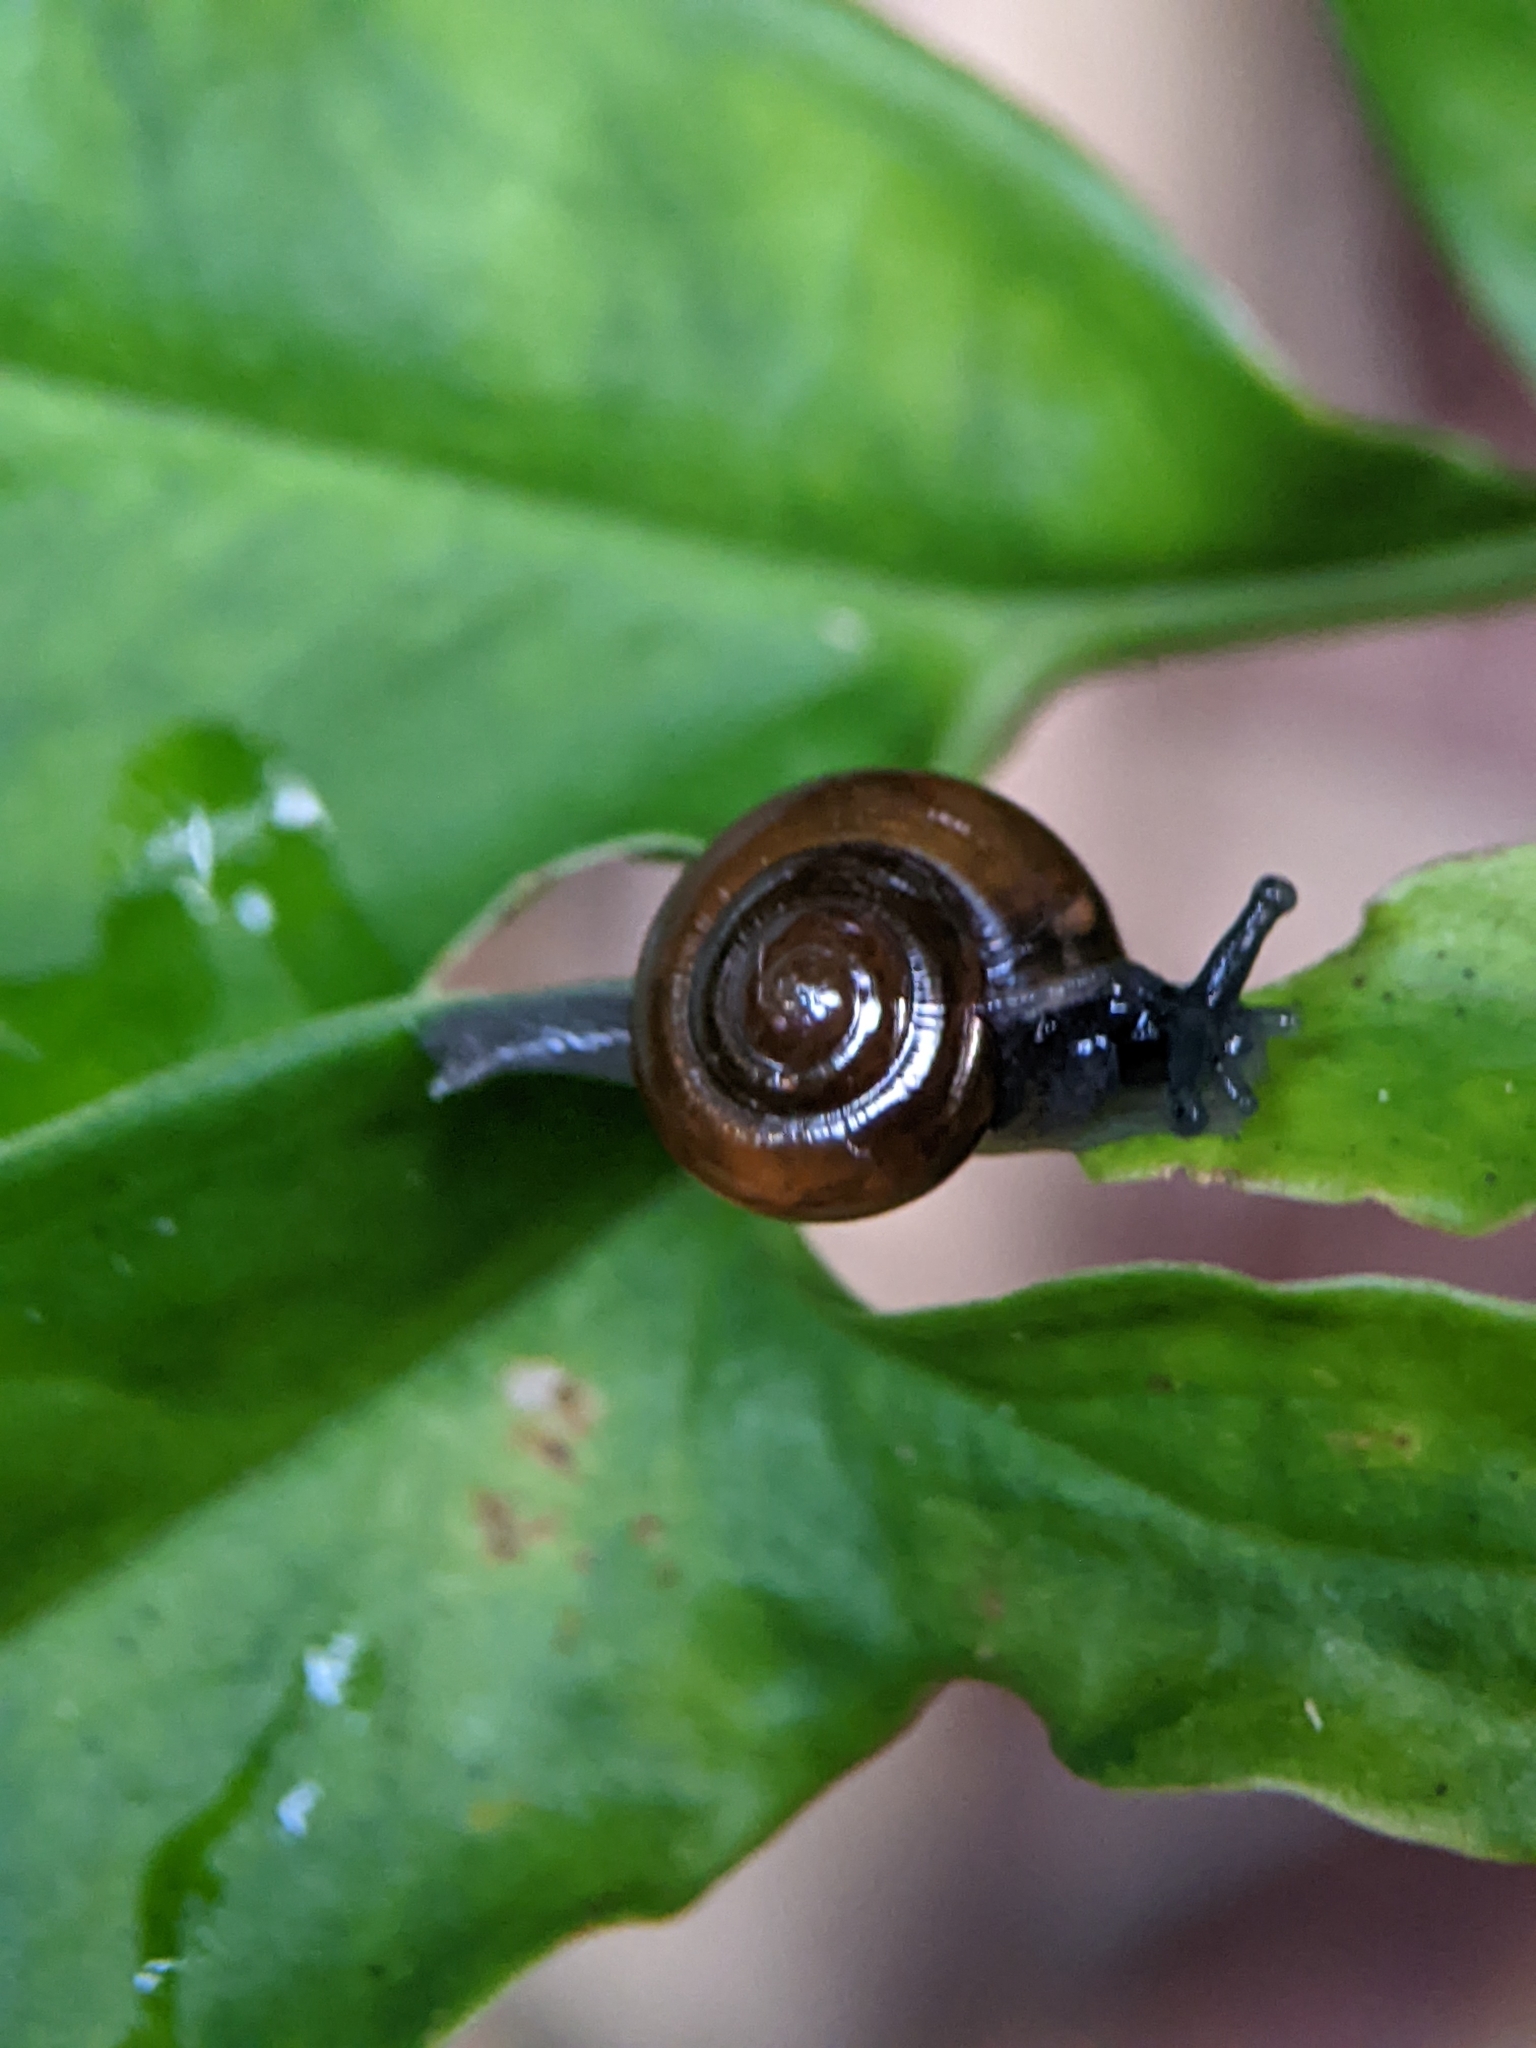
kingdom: Animalia
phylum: Mollusca
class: Gastropoda
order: Stylommatophora
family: Ariophantidae
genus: Sarika
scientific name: Sarika resplendens
